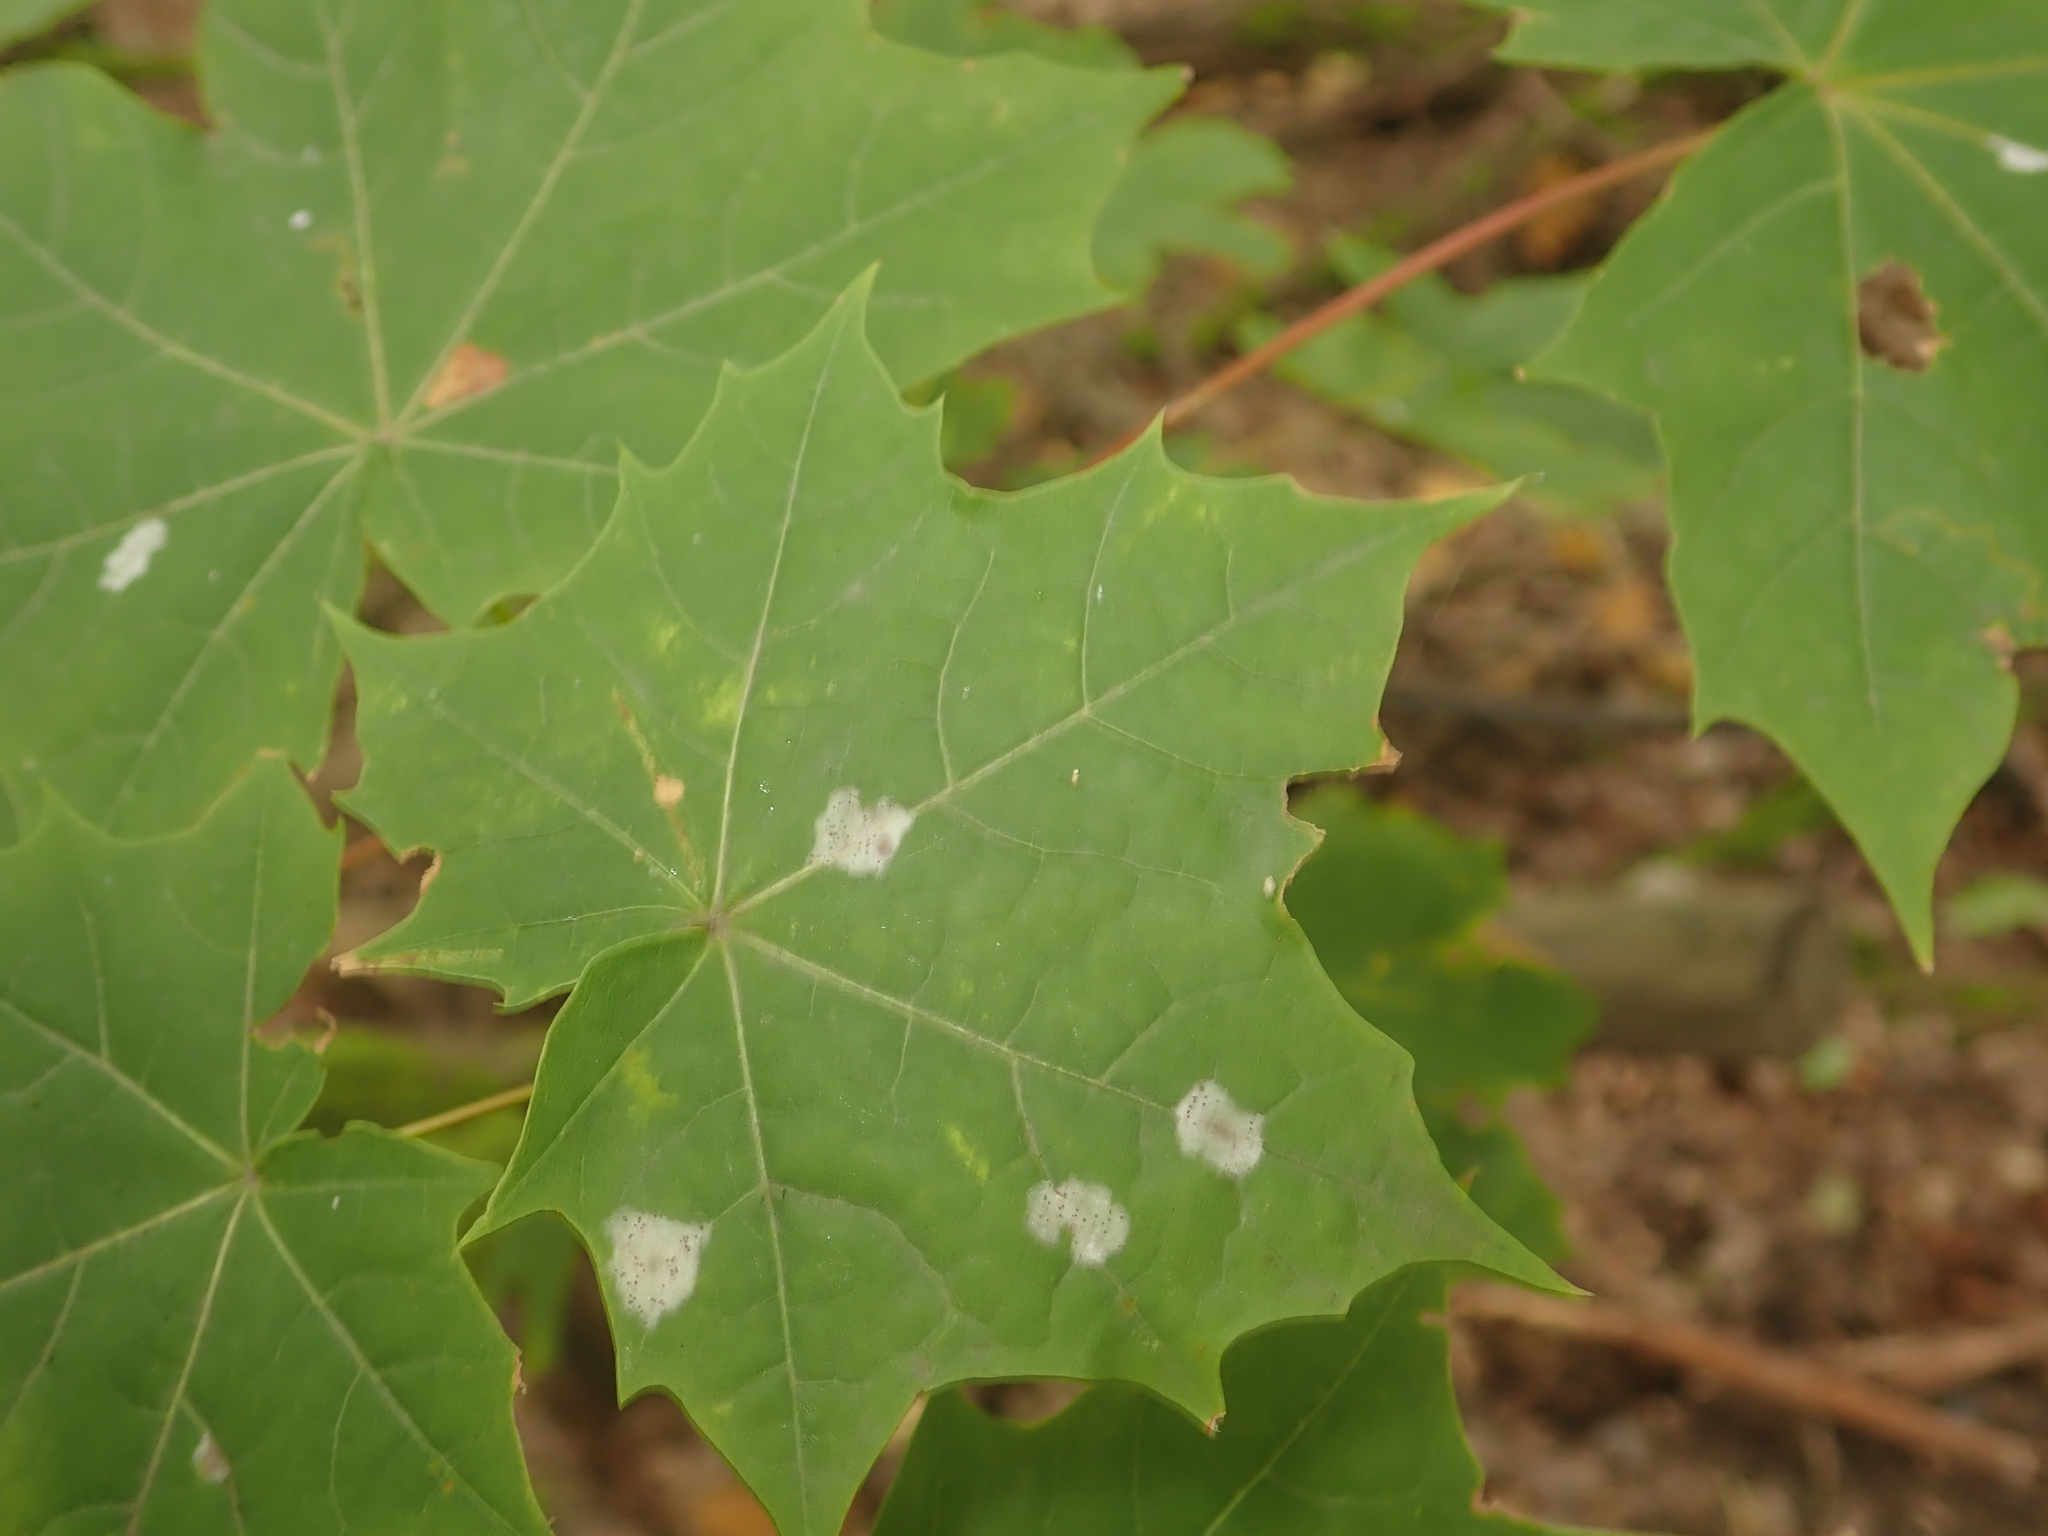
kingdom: Plantae
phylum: Tracheophyta
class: Magnoliopsida
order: Sapindales
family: Sapindaceae
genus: Acer
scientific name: Acer platanoides
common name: Norway maple
